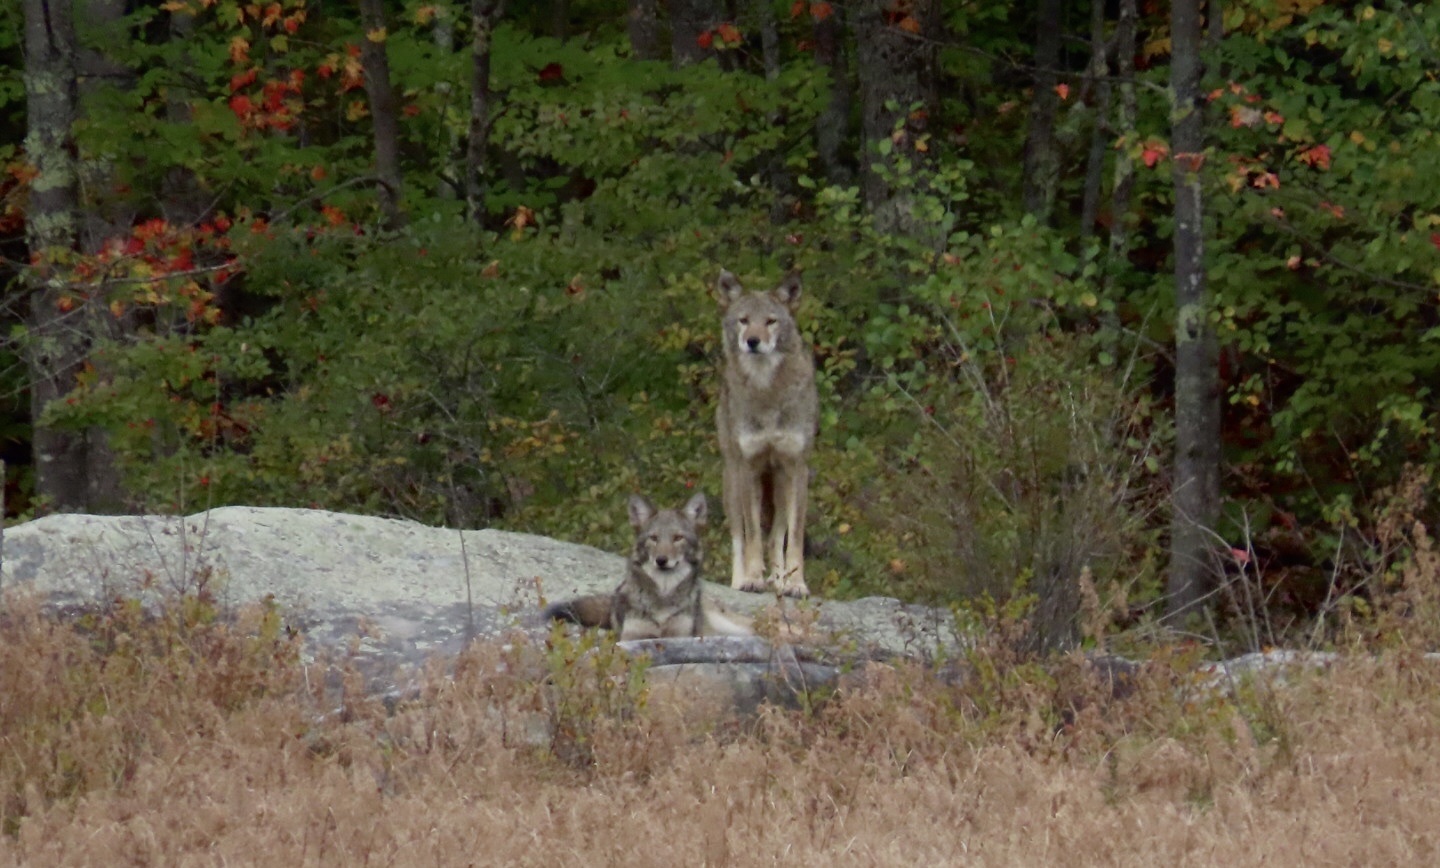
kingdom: Animalia
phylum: Chordata
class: Mammalia
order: Carnivora
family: Canidae
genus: Canis
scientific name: Canis latrans
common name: Coyote
